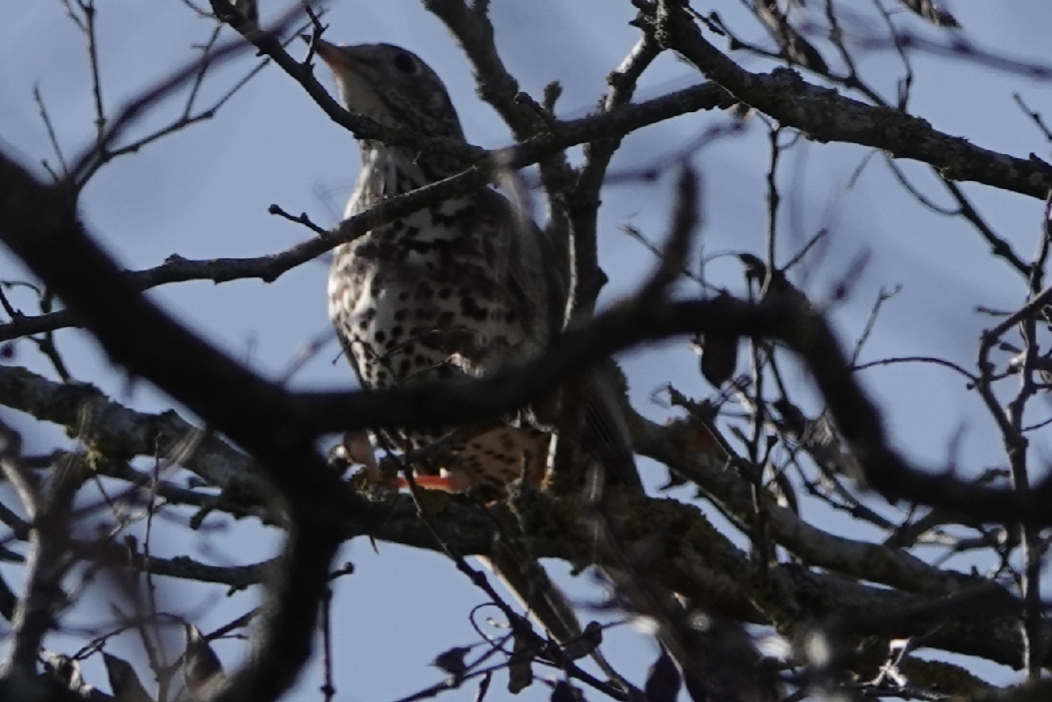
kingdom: Animalia
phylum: Chordata
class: Aves
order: Passeriformes
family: Turdidae
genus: Turdus
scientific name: Turdus viscivorus
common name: Mistle thrush
